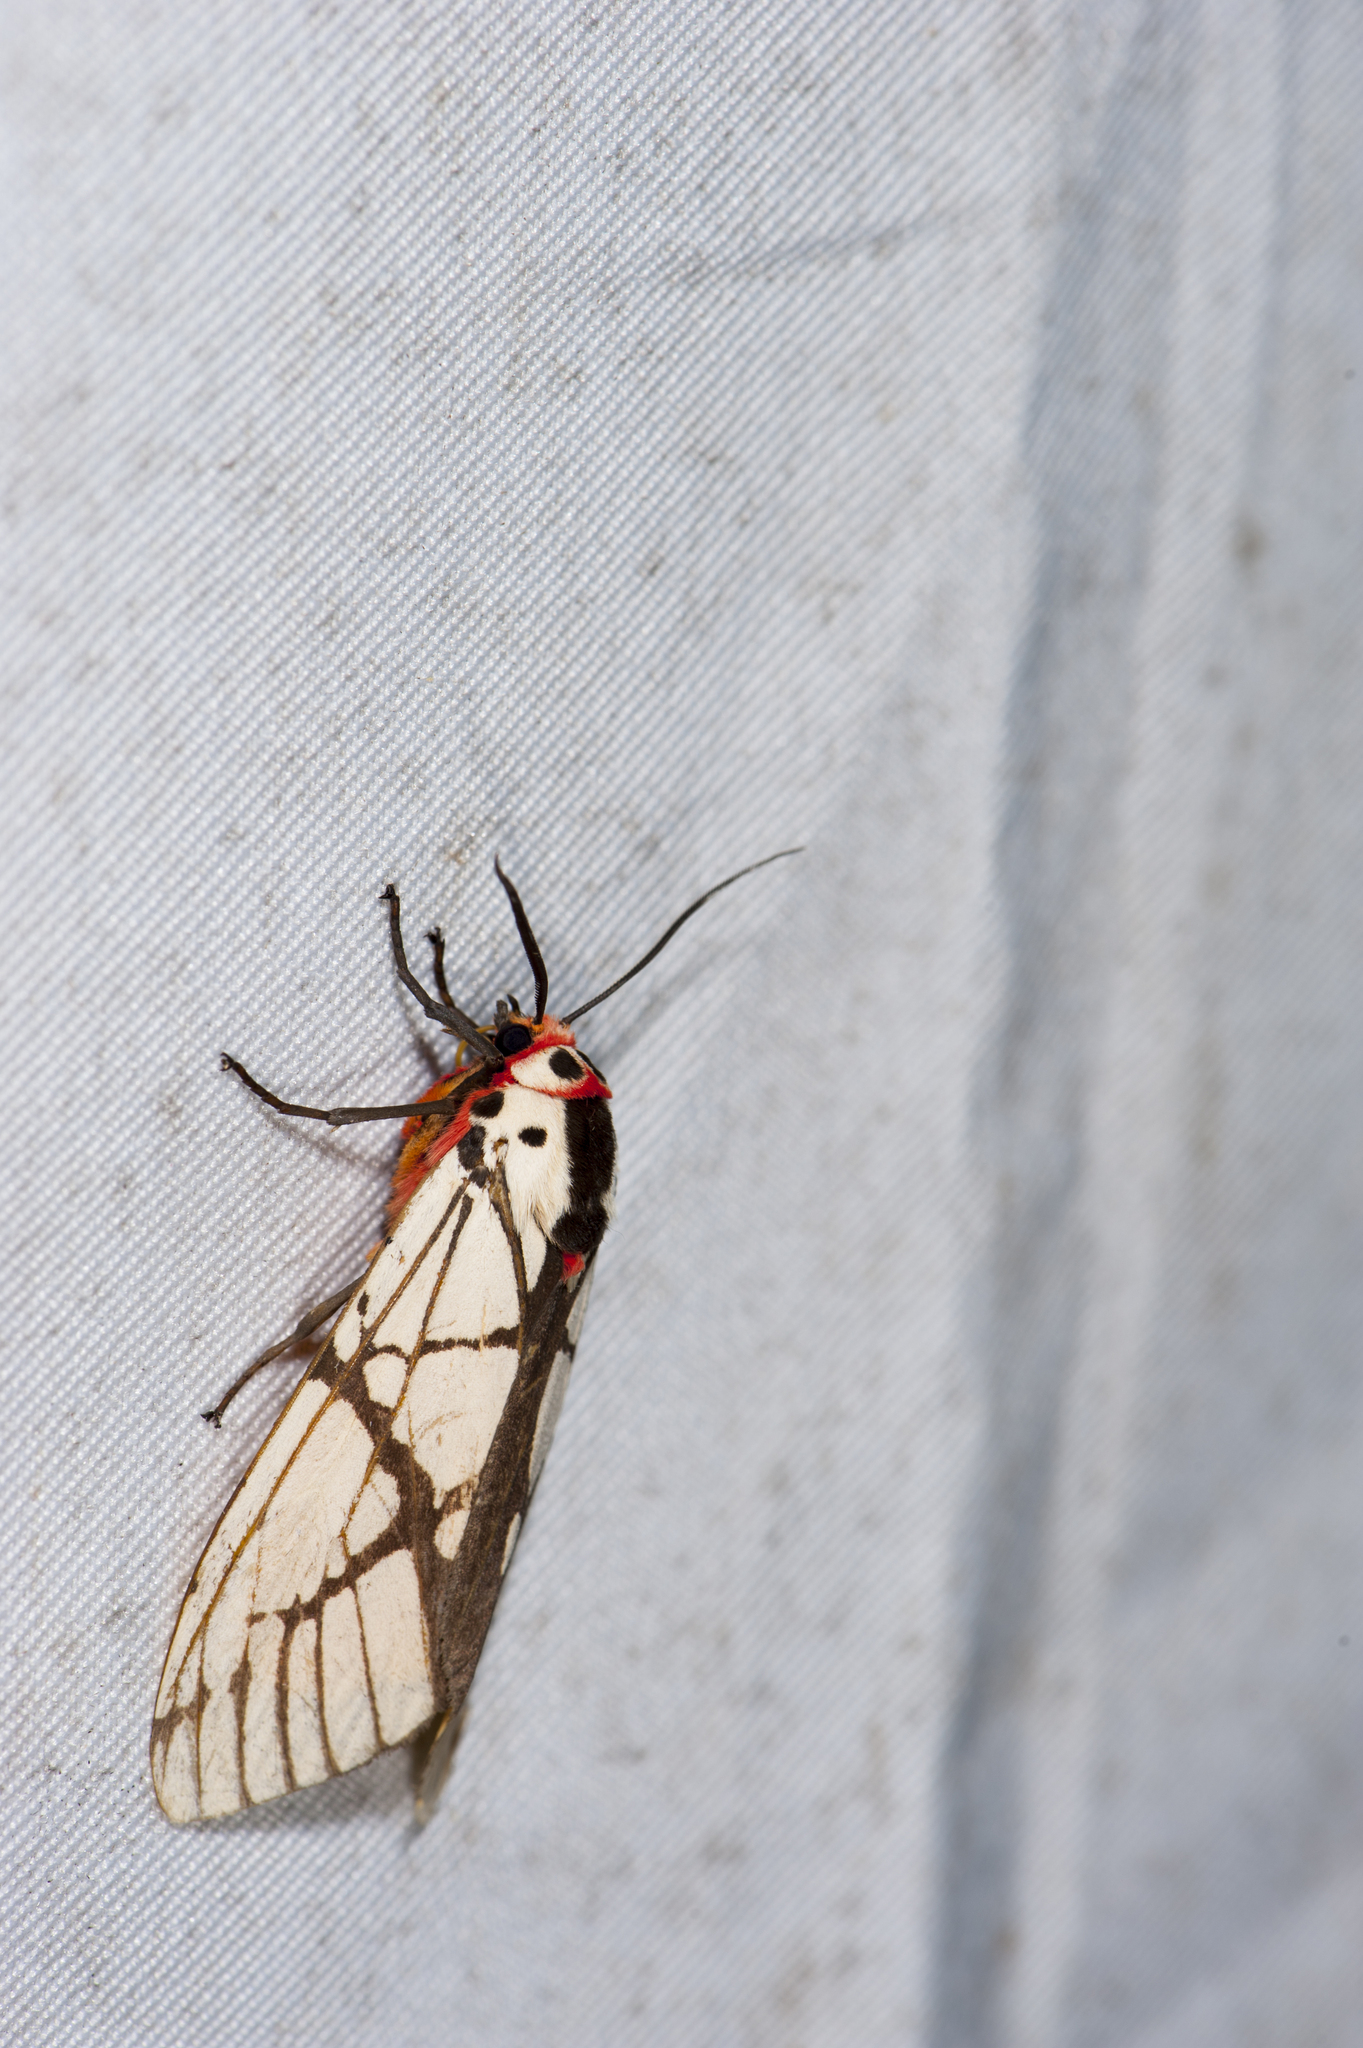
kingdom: Animalia
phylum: Arthropoda
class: Insecta
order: Lepidoptera
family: Erebidae
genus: Areas
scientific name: Areas galactina
